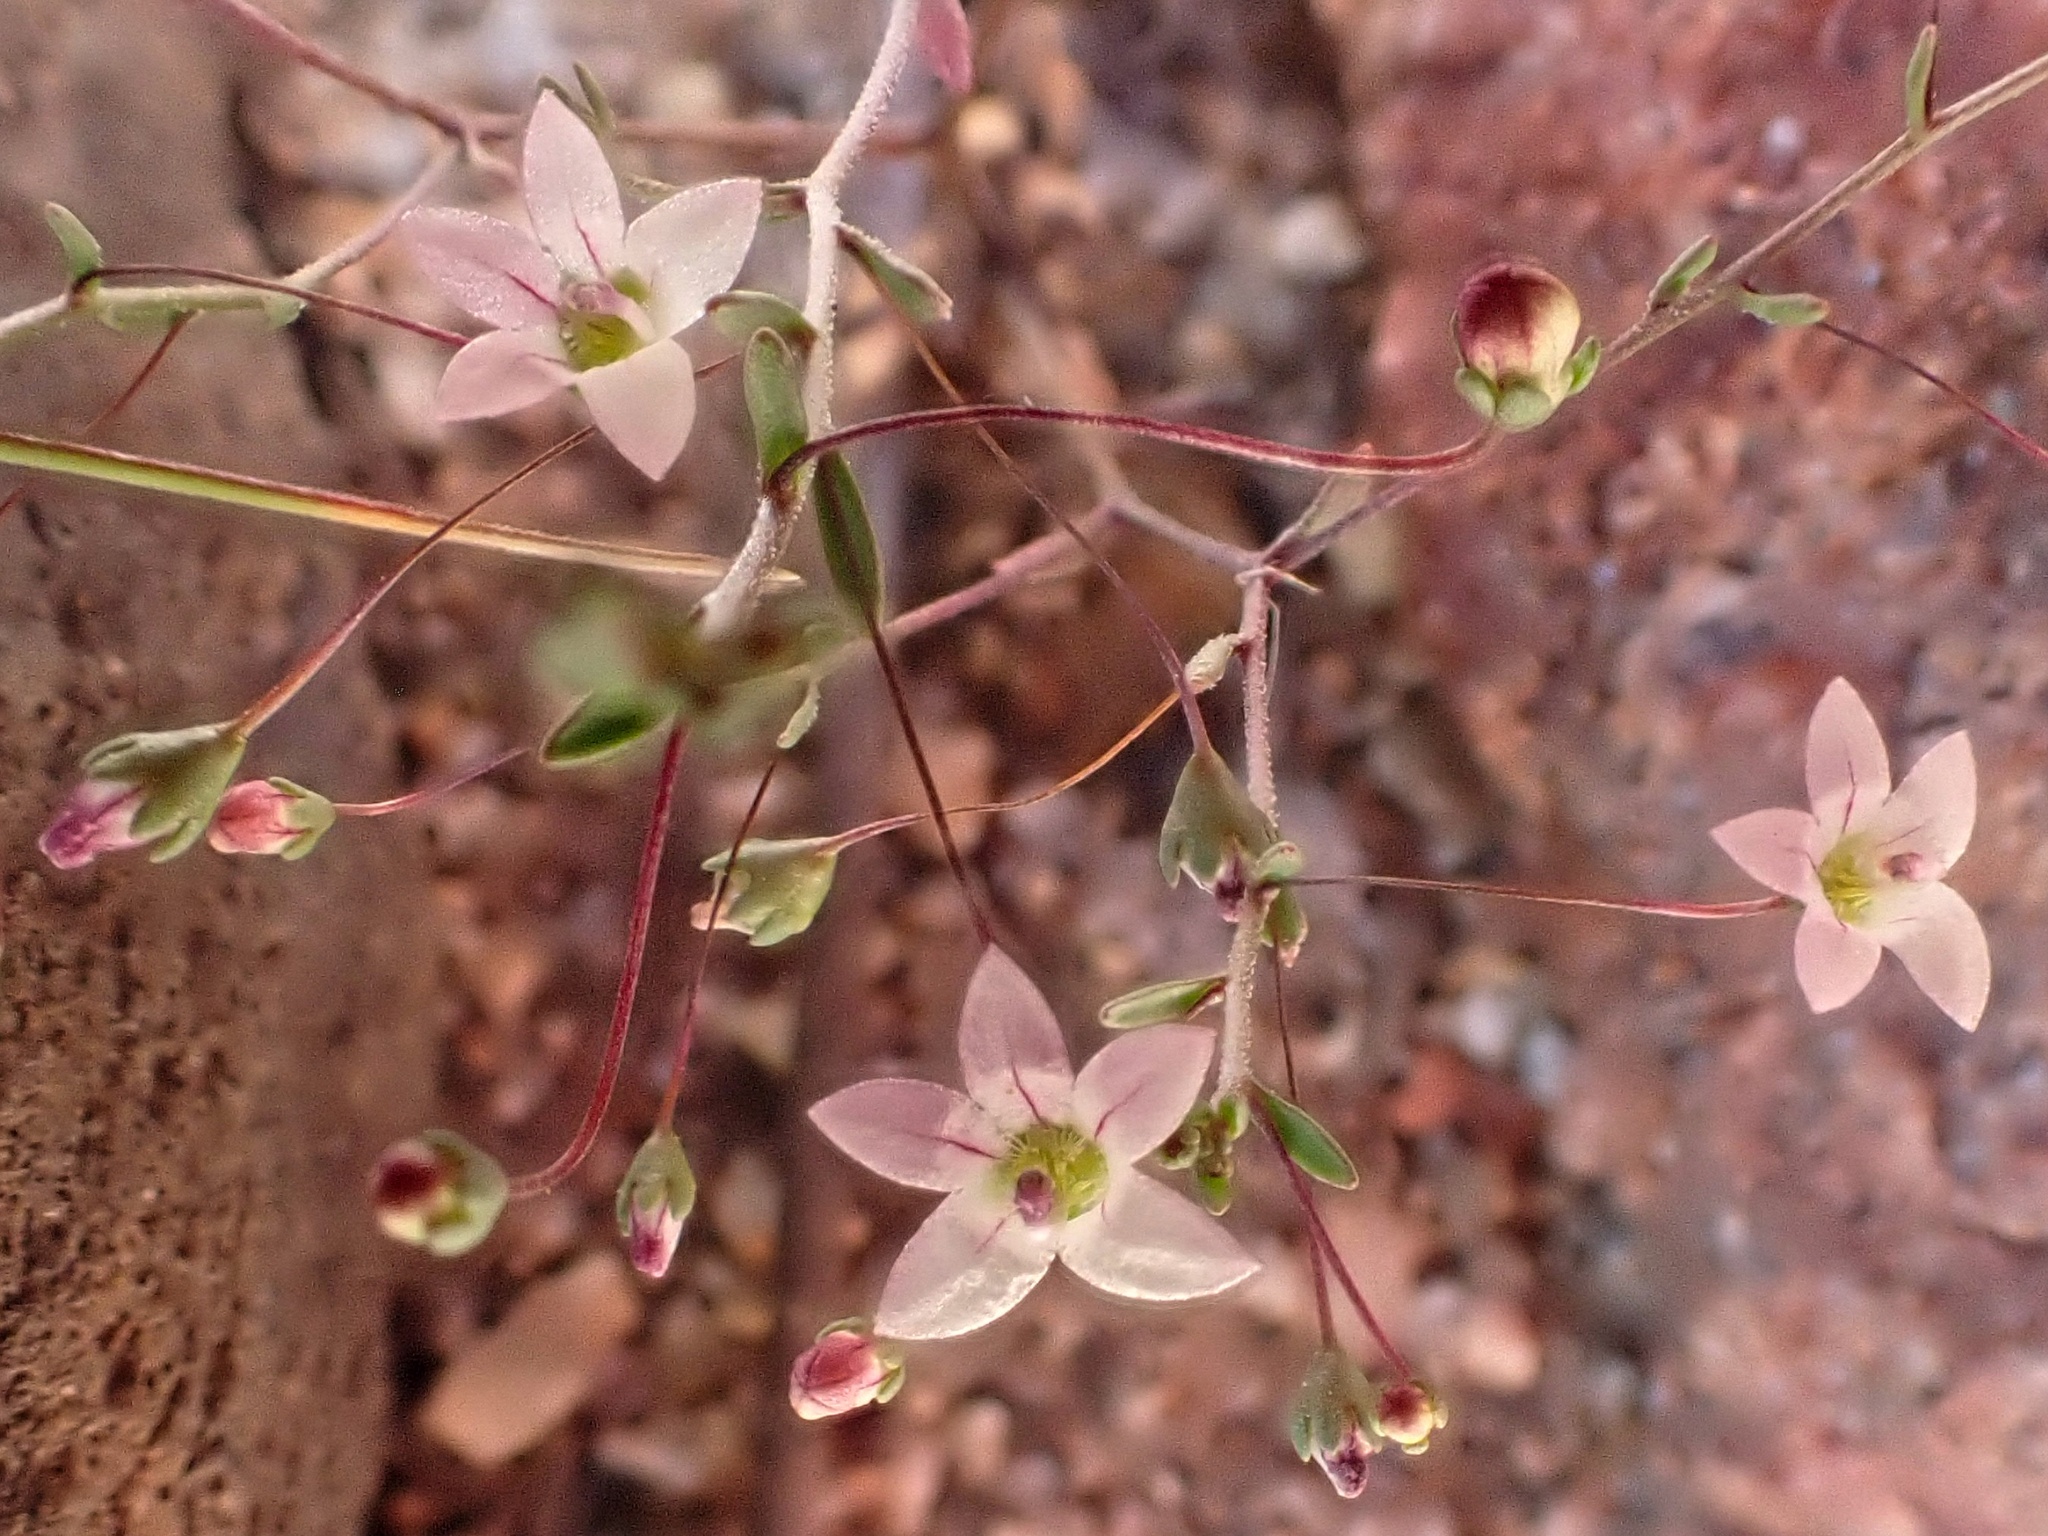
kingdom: Plantae
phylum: Tracheophyta
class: Magnoliopsida
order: Asterales
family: Campanulaceae
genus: Nemacladus
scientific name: Nemacladus ramosissimus
